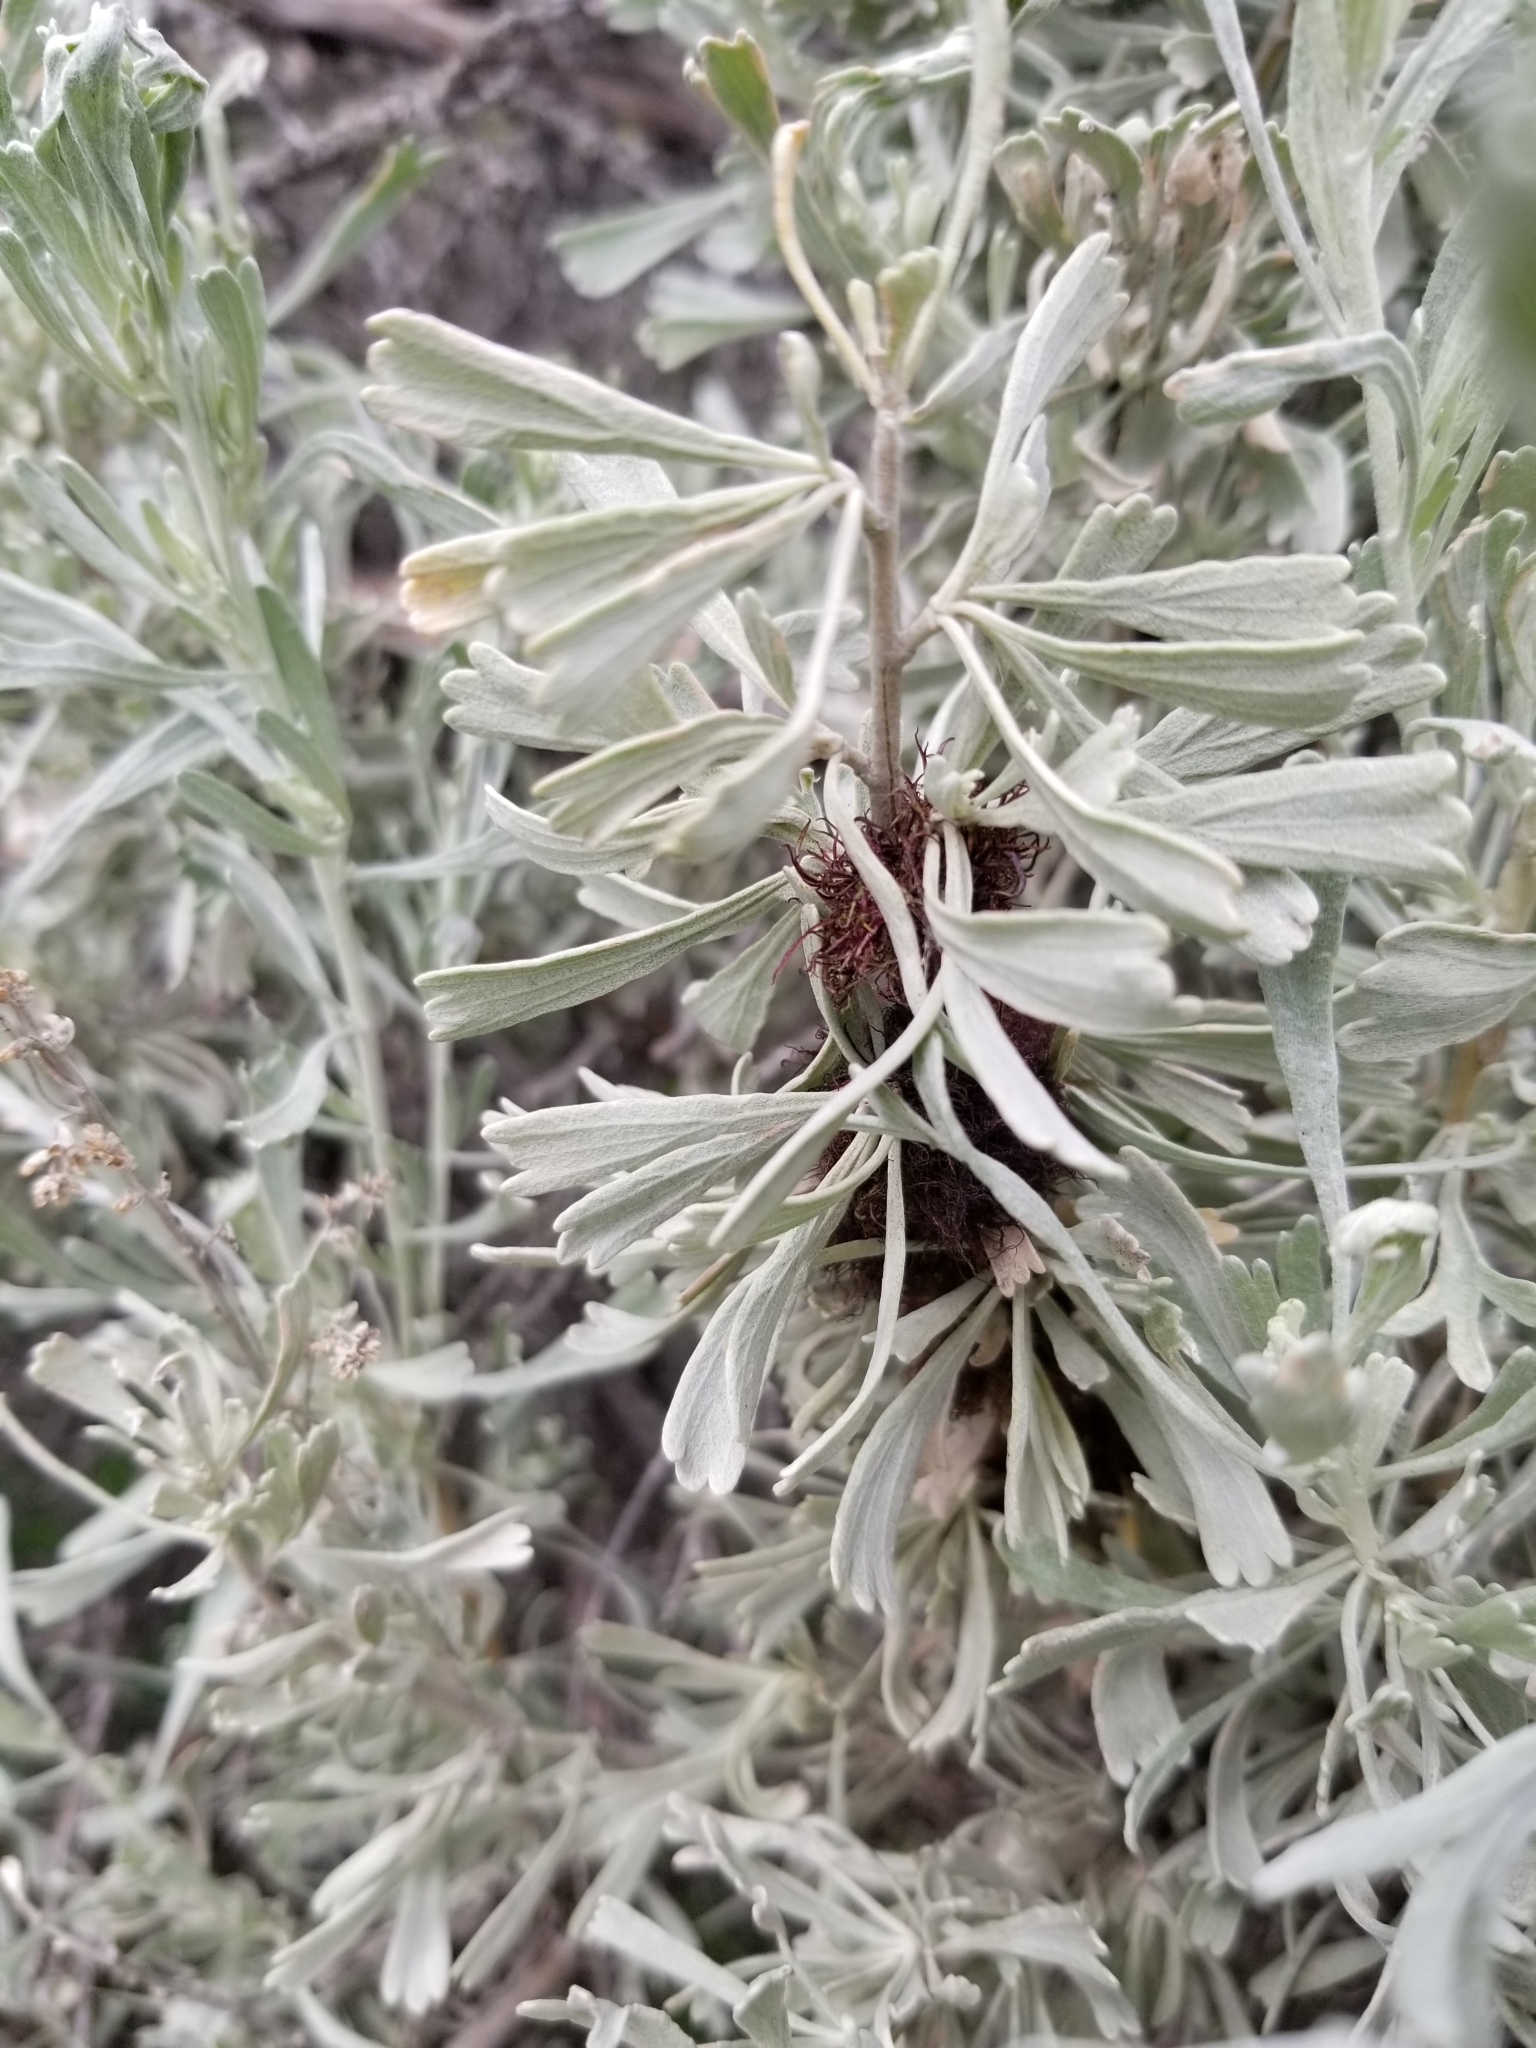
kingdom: Animalia
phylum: Arthropoda
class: Insecta
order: Diptera
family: Cecidomyiidae
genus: Rhopalomyia
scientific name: Rhopalomyia medusa
